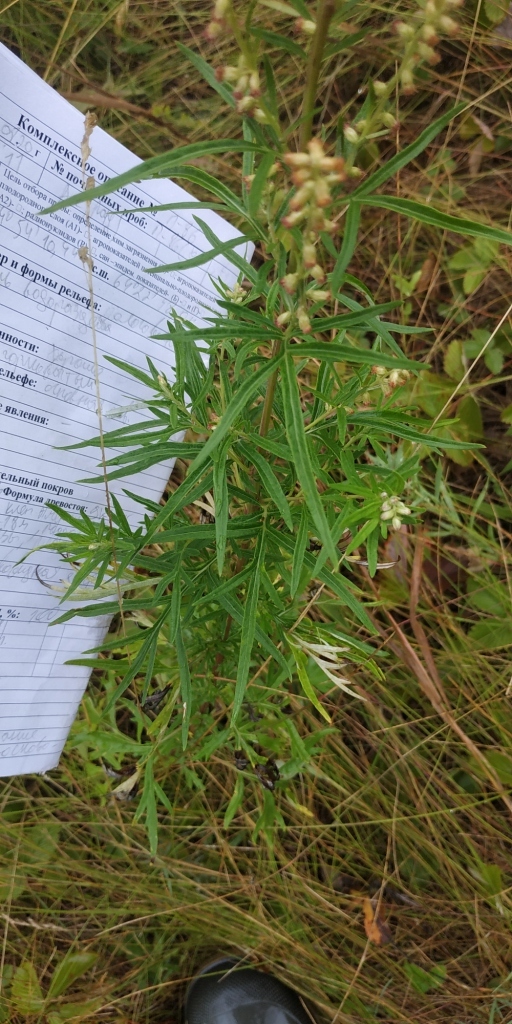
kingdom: Plantae
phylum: Tracheophyta
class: Magnoliopsida
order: Asterales
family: Asteraceae
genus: Artemisia
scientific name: Artemisia vulgaris
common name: Mugwort
